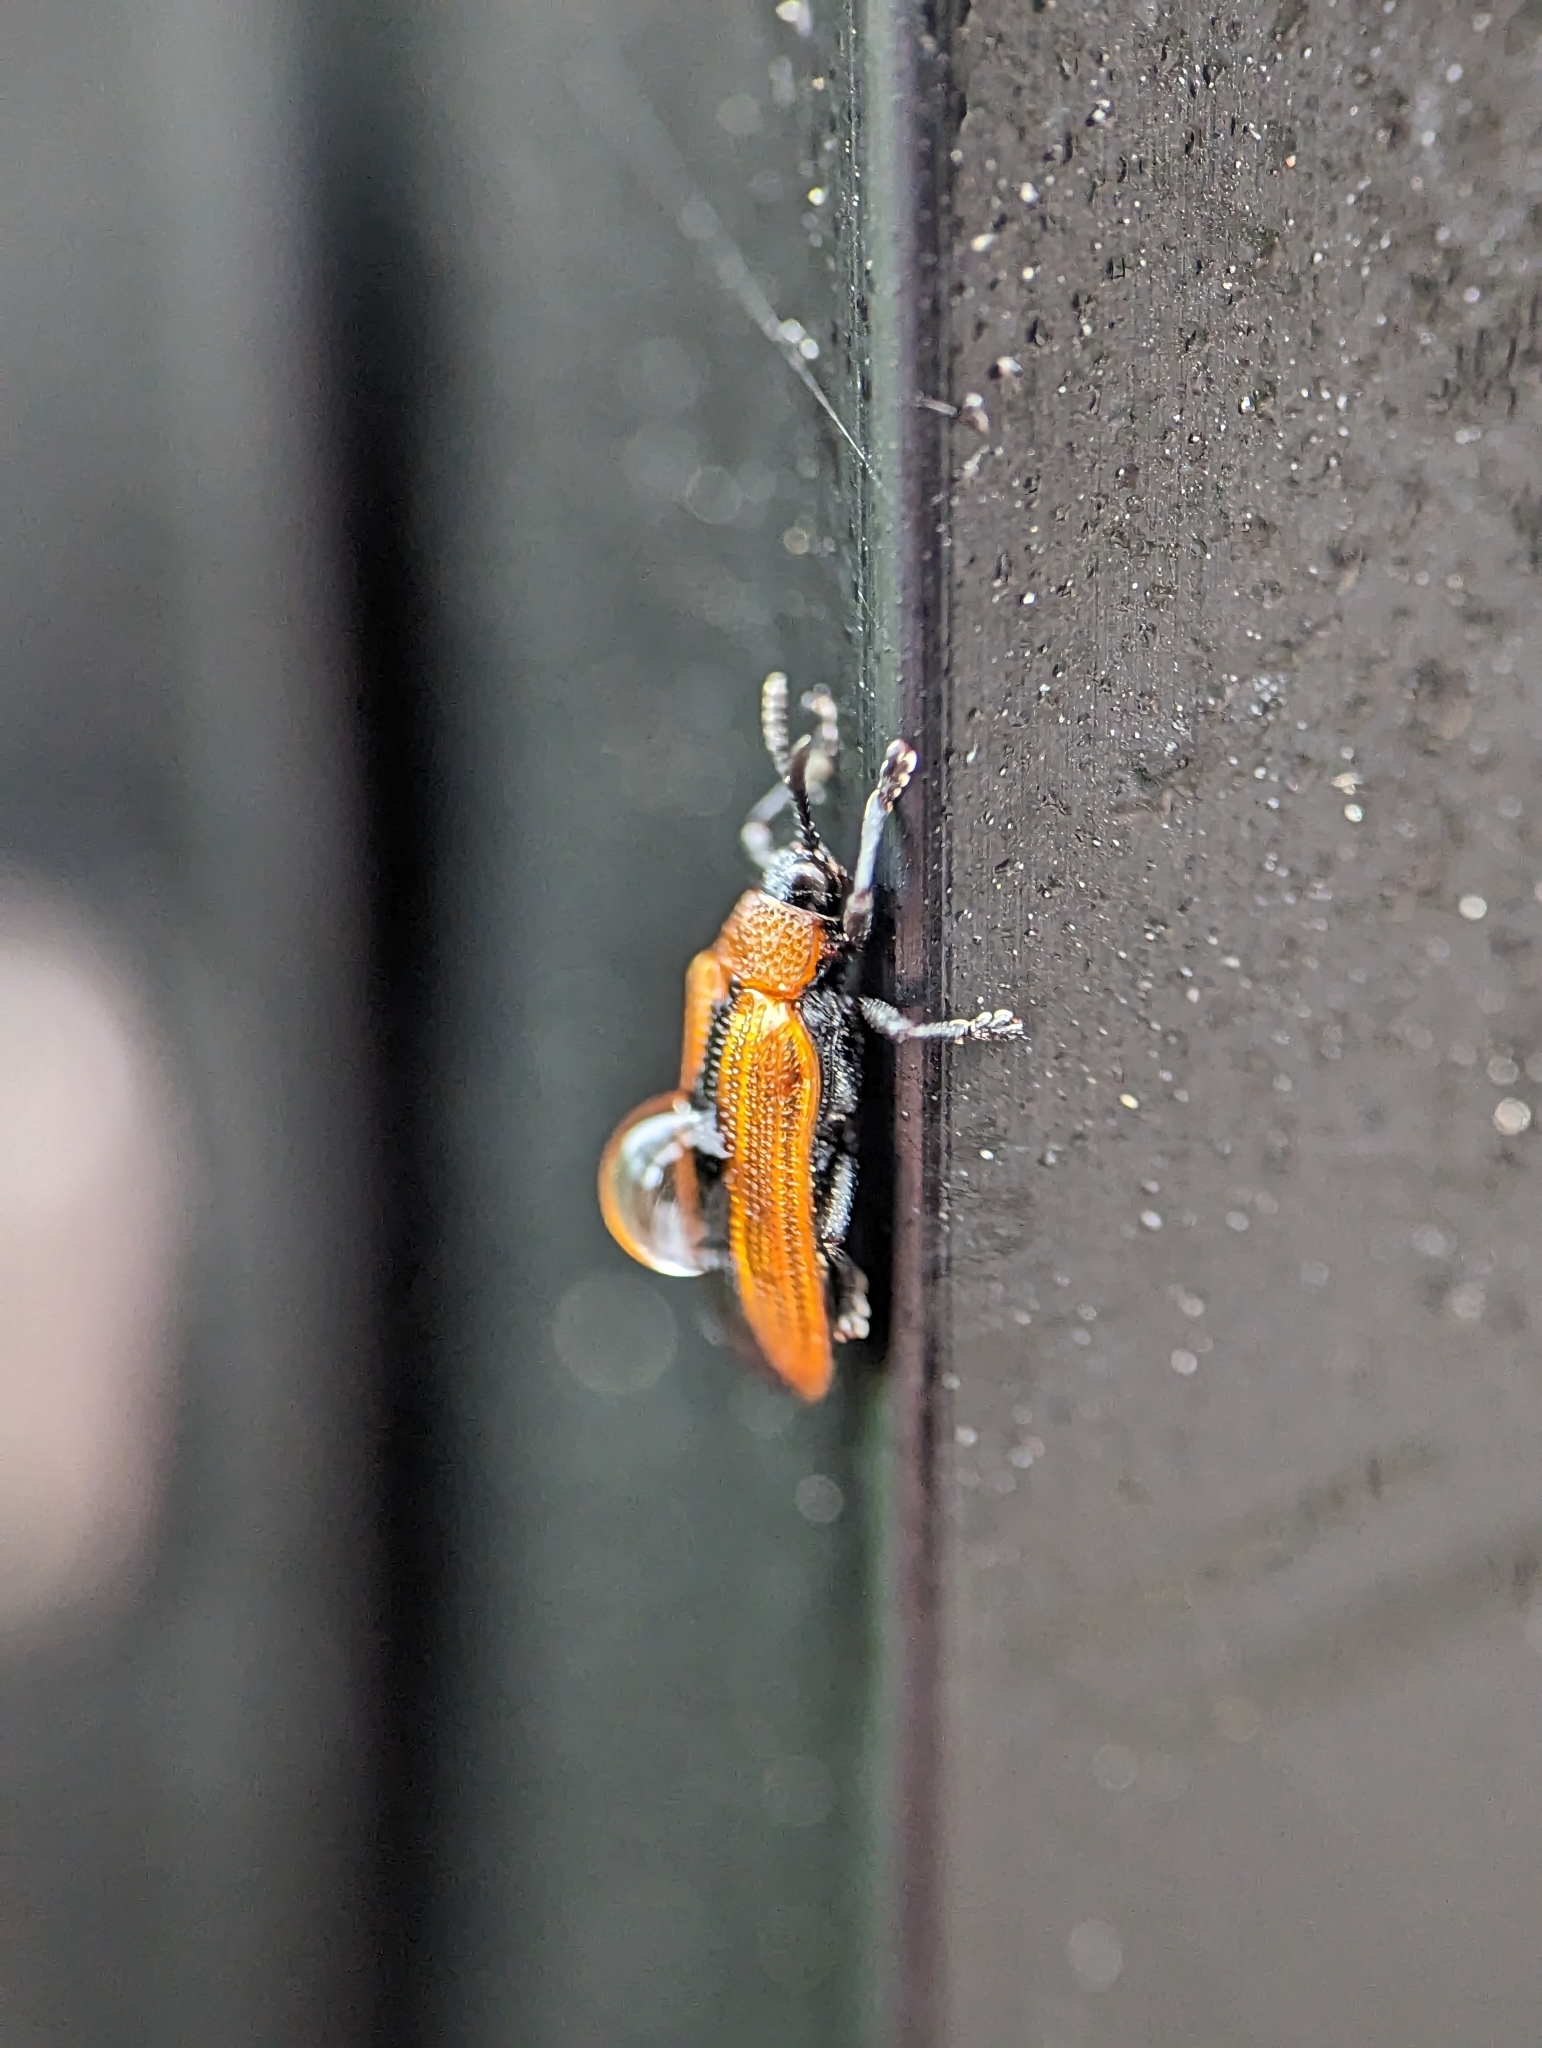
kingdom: Animalia
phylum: Arthropoda
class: Insecta
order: Coleoptera
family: Chrysomelidae
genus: Odontota
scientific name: Odontota dorsalis
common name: Locust leaf-miner beetle
